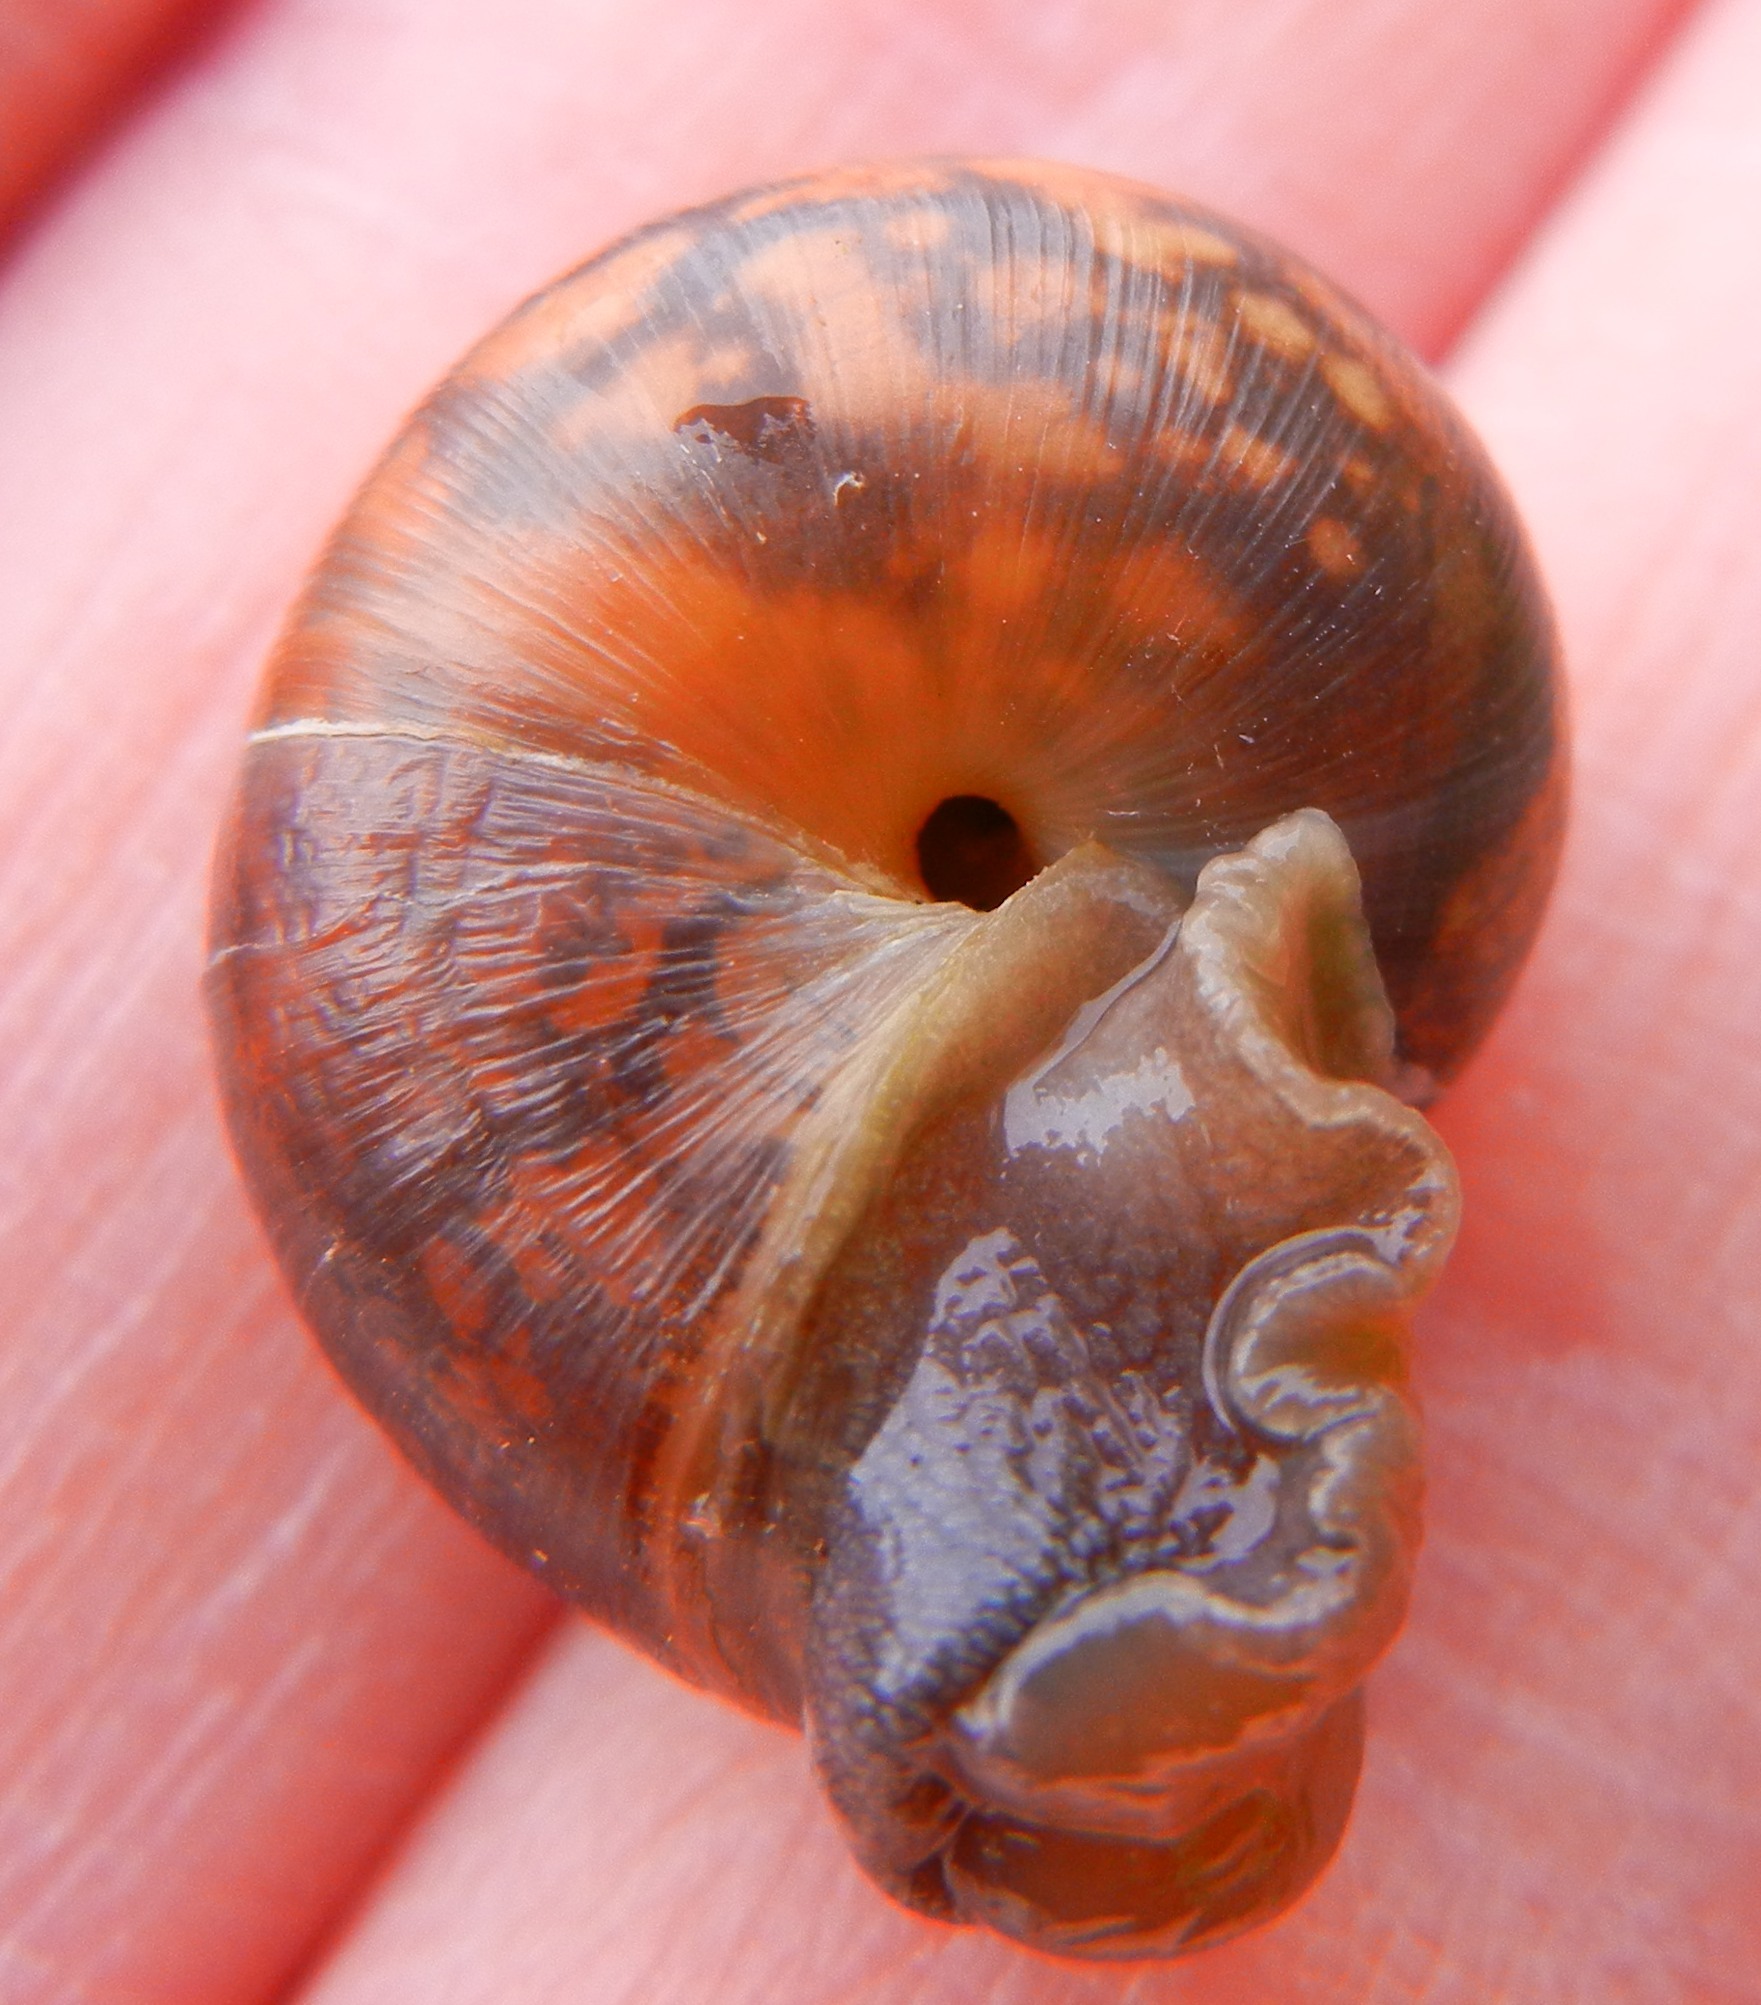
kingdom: Animalia
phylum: Mollusca
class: Gastropoda
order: Stylommatophora
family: Hygromiidae
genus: Monacha
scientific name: Monacha cantiana
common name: Kentish snail
